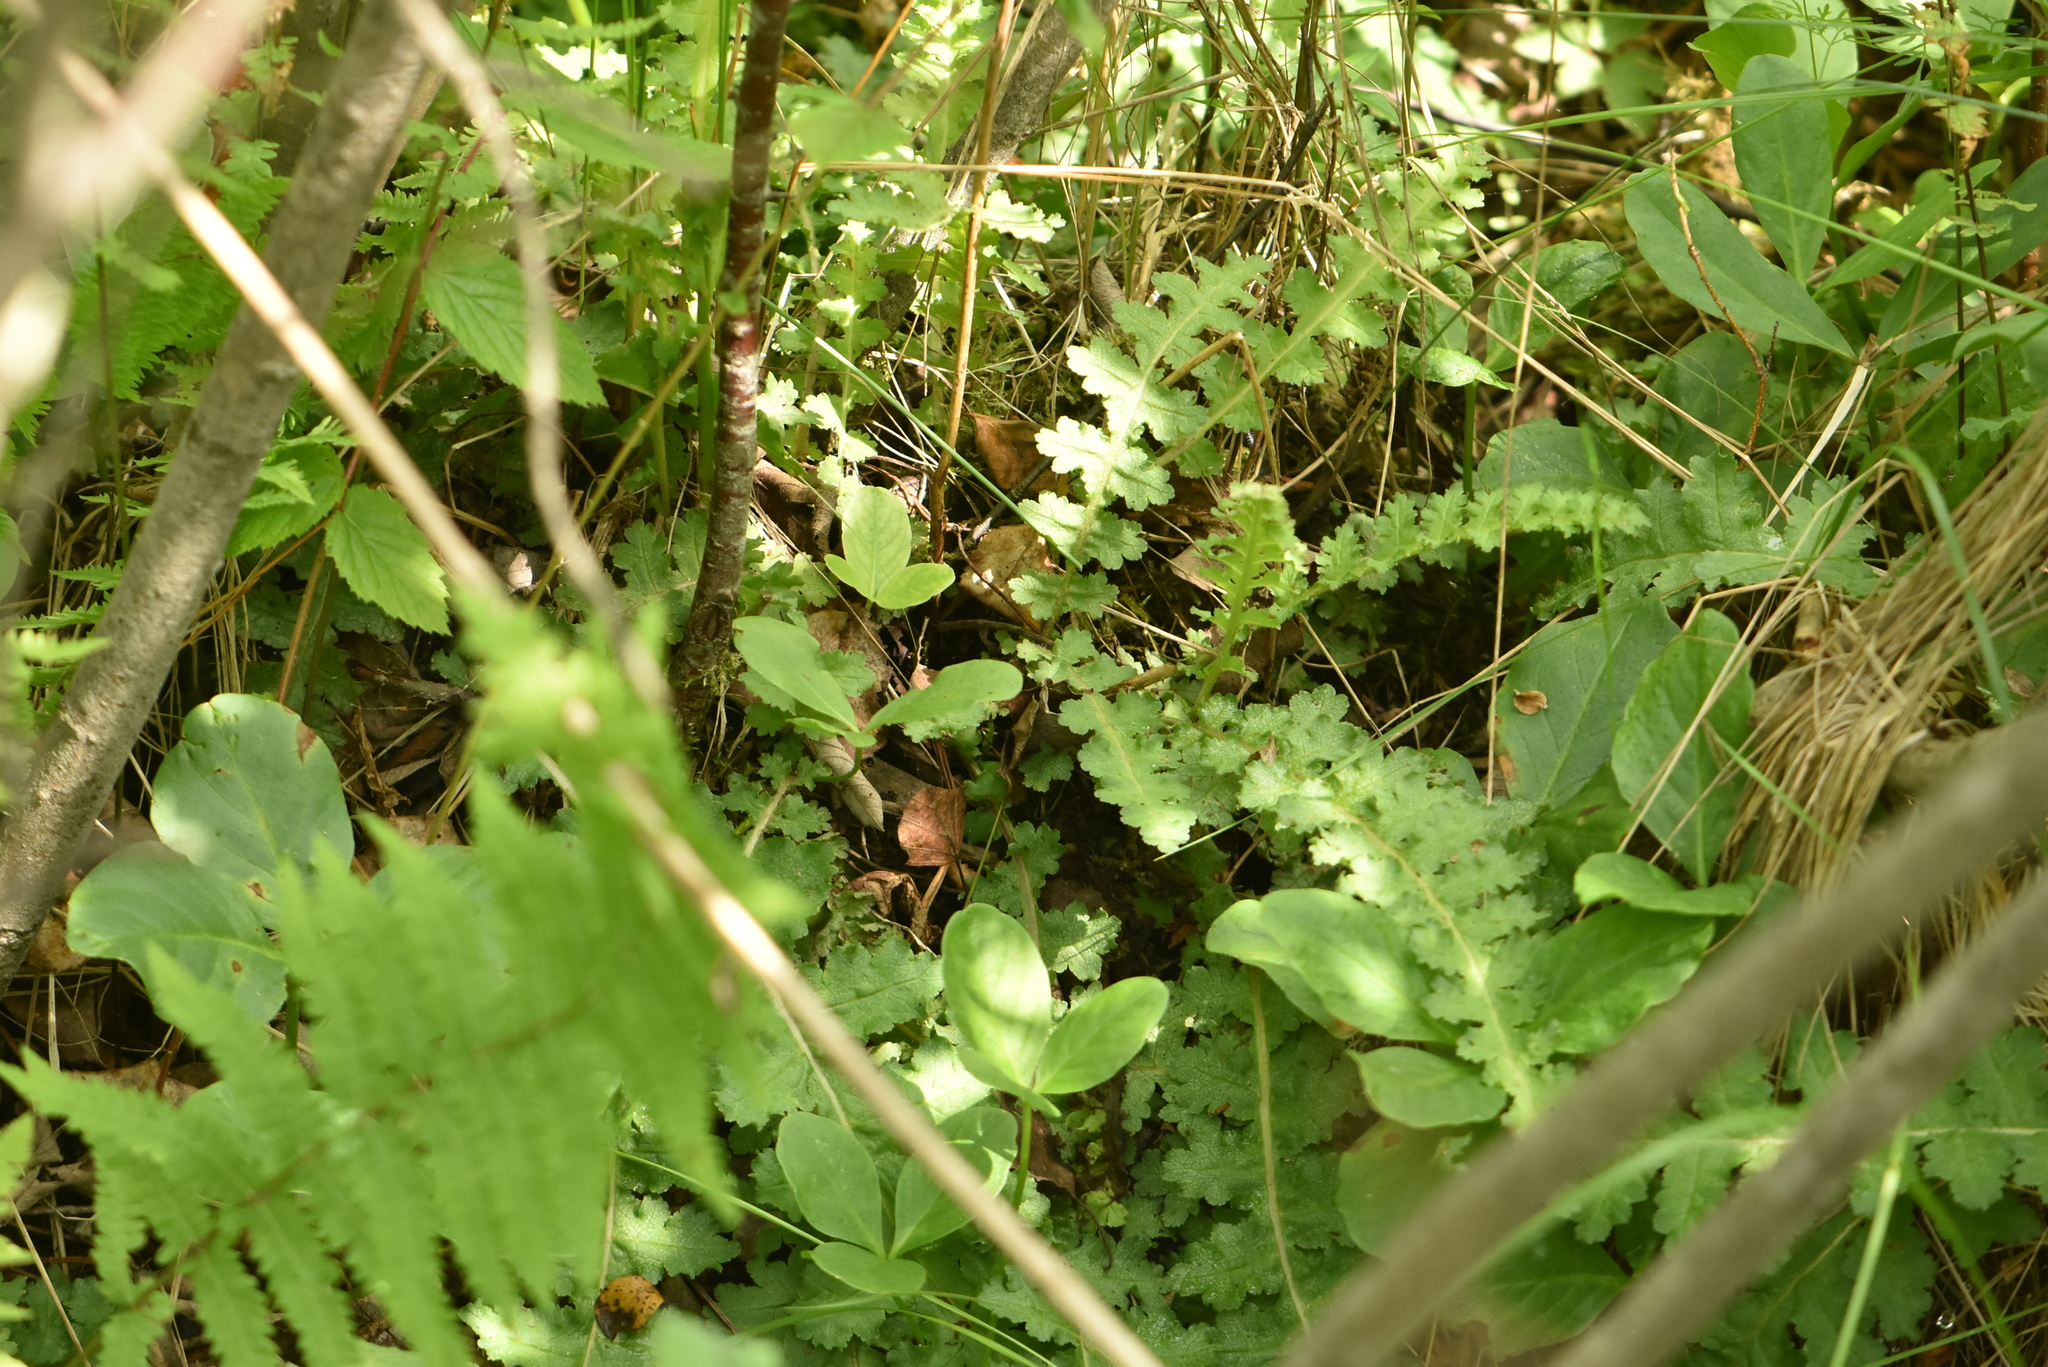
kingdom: Plantae
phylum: Tracheophyta
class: Magnoliopsida
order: Lamiales
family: Orobanchaceae
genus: Pedicularis
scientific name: Pedicularis sceptrum-carolinum
